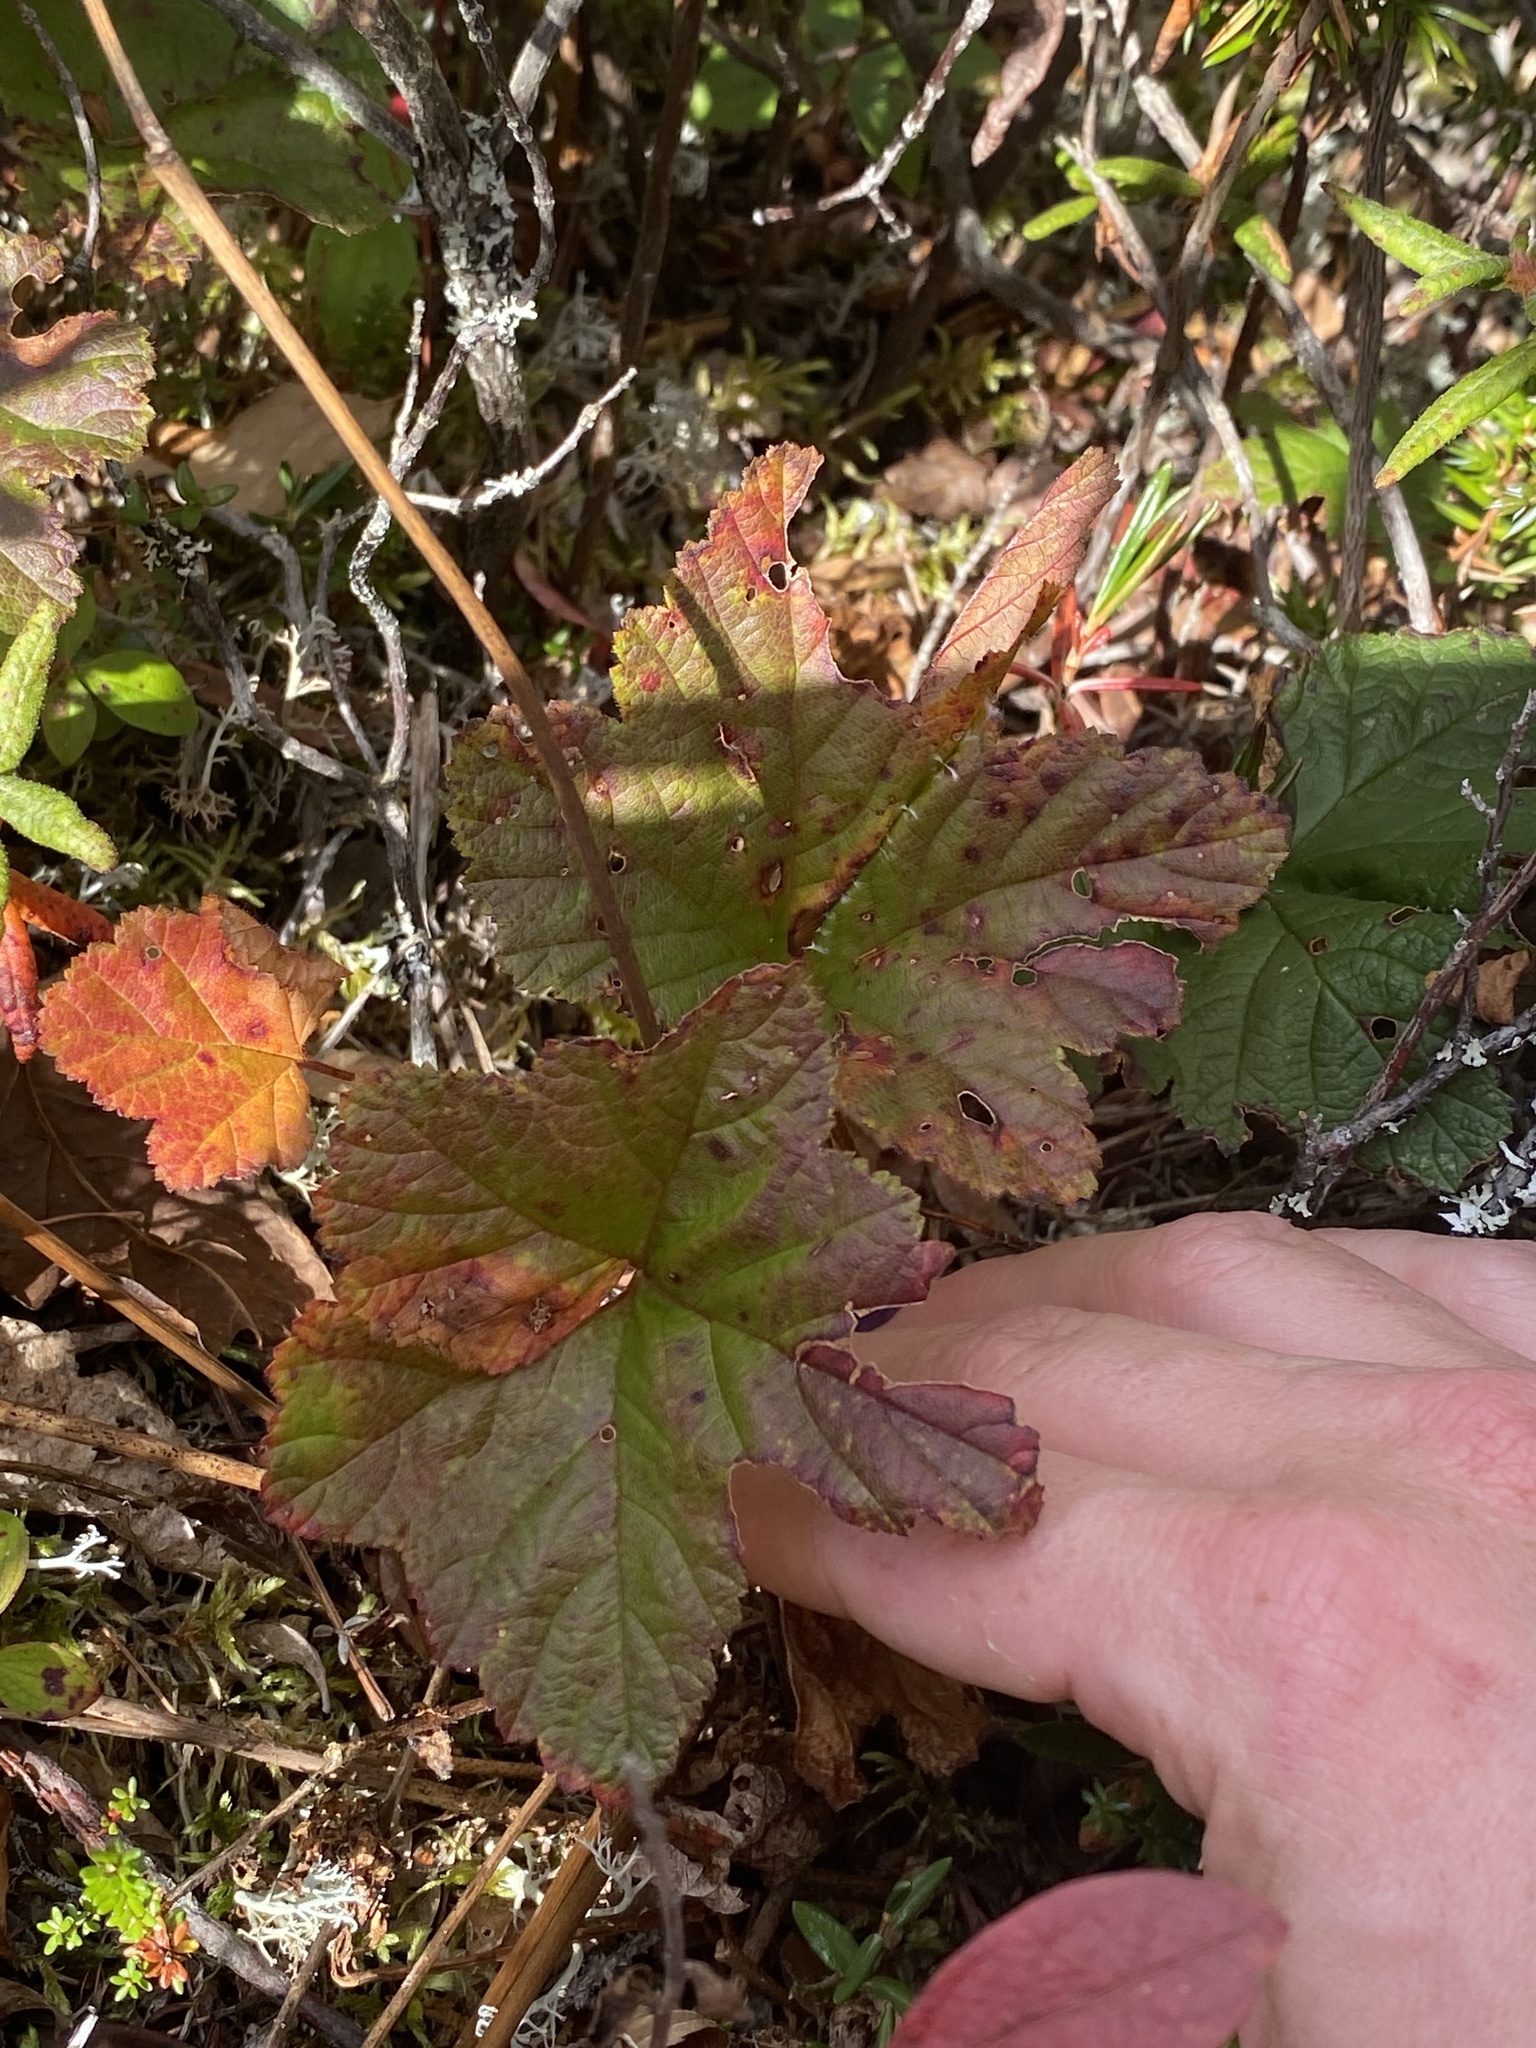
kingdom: Plantae
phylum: Tracheophyta
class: Magnoliopsida
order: Rosales
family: Rosaceae
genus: Rubus
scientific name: Rubus chamaemorus
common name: Cloudberry
